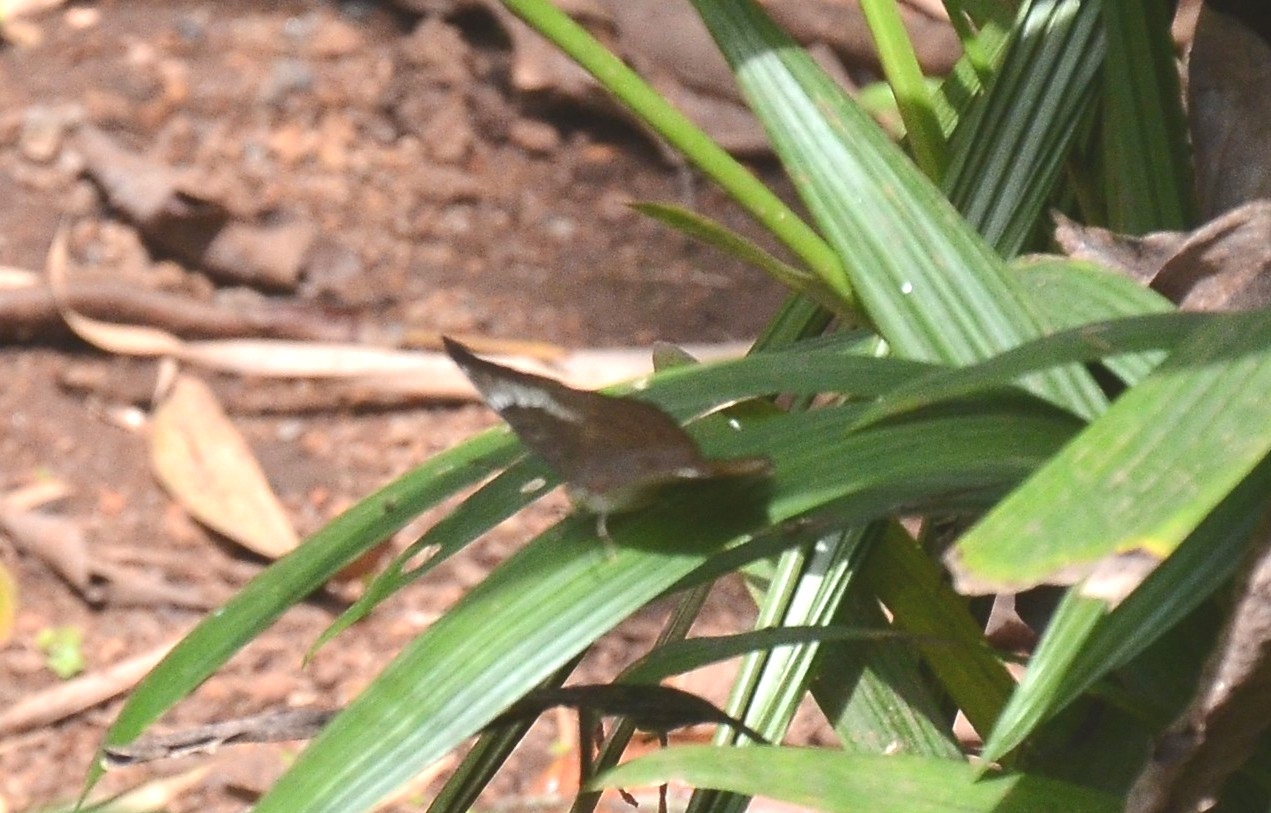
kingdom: Animalia
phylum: Arthropoda
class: Insecta
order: Lepidoptera
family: Nymphalidae
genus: Euthalia
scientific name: Euthalia aconthea
